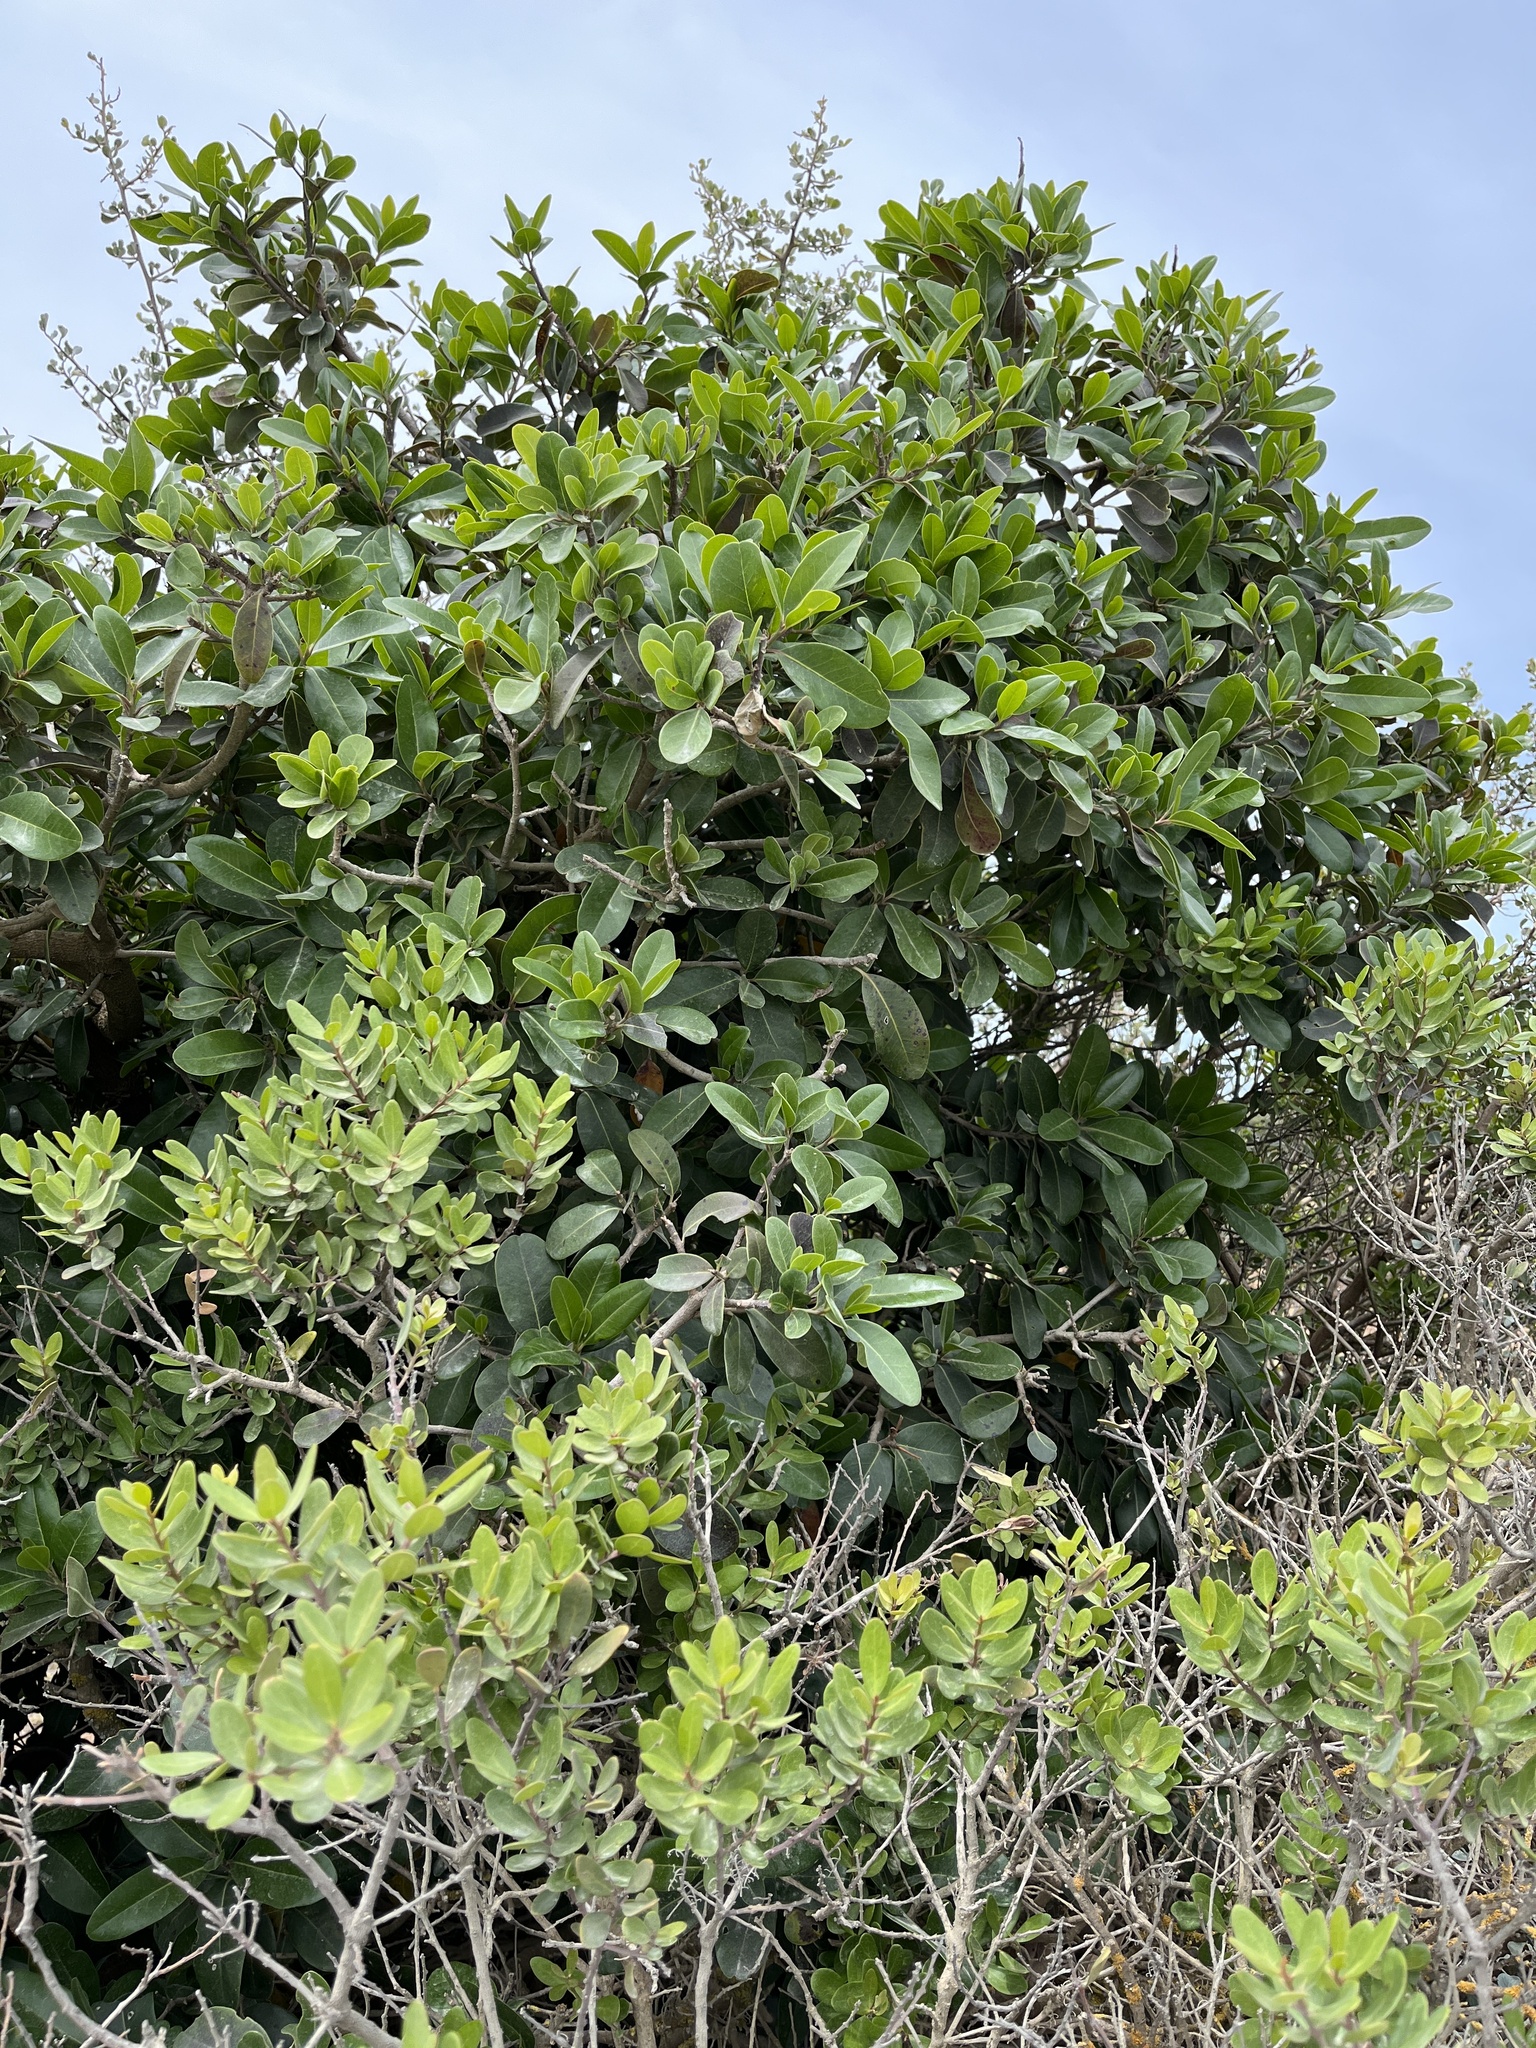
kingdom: Plantae
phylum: Tracheophyta
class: Magnoliopsida
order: Ericales
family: Sapotaceae
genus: Sideroxylon
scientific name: Sideroxylon inerme
